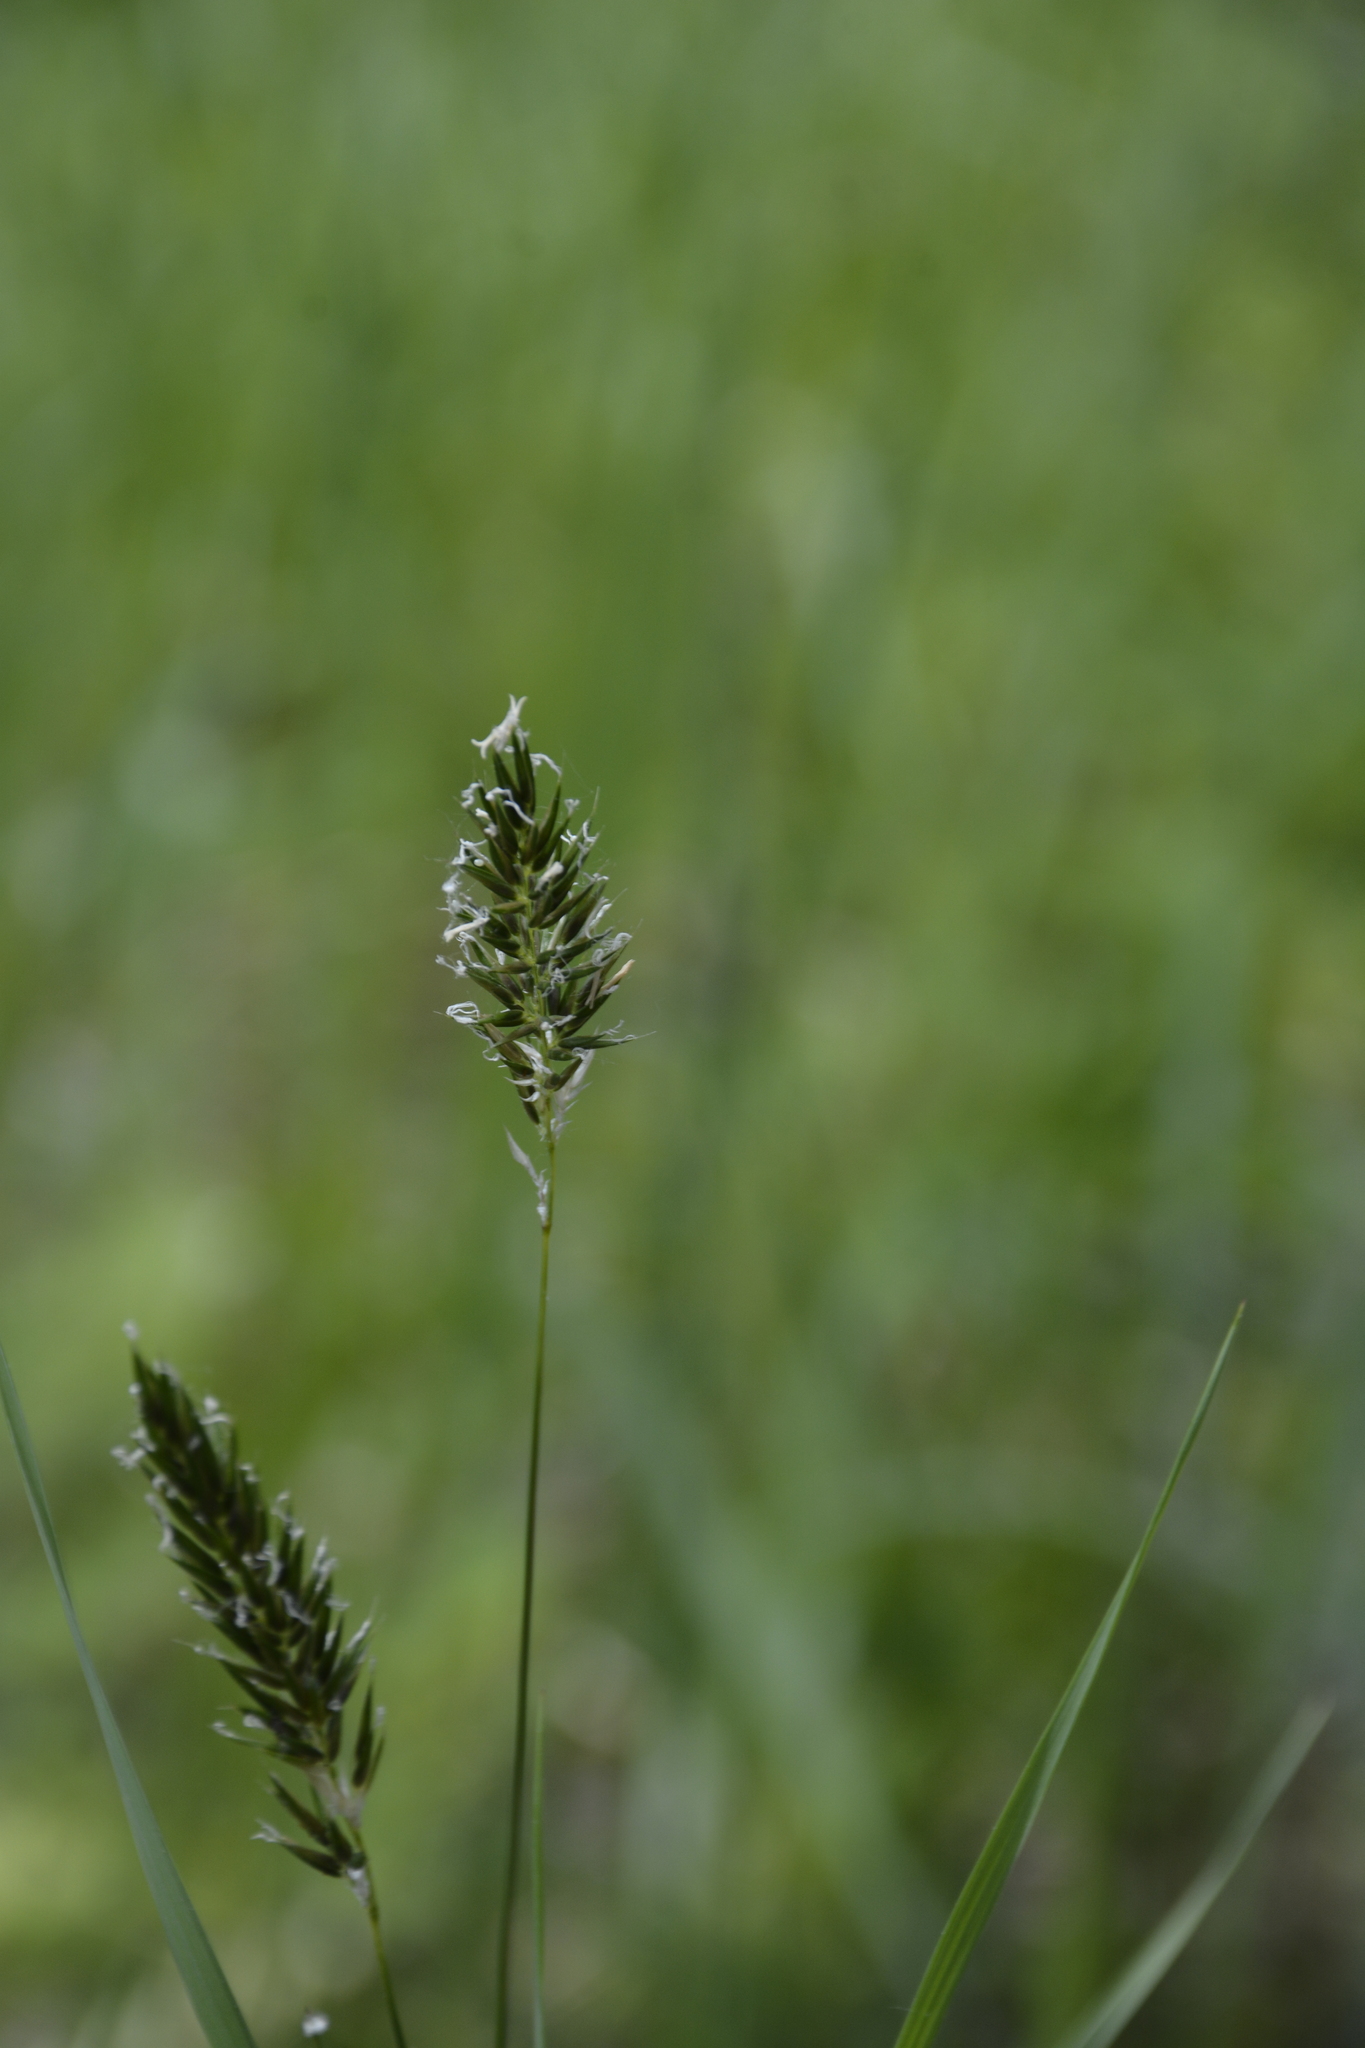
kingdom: Plantae
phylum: Tracheophyta
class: Liliopsida
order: Poales
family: Poaceae
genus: Anthoxanthum
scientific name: Anthoxanthum odoratum
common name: Sweet vernalgrass
